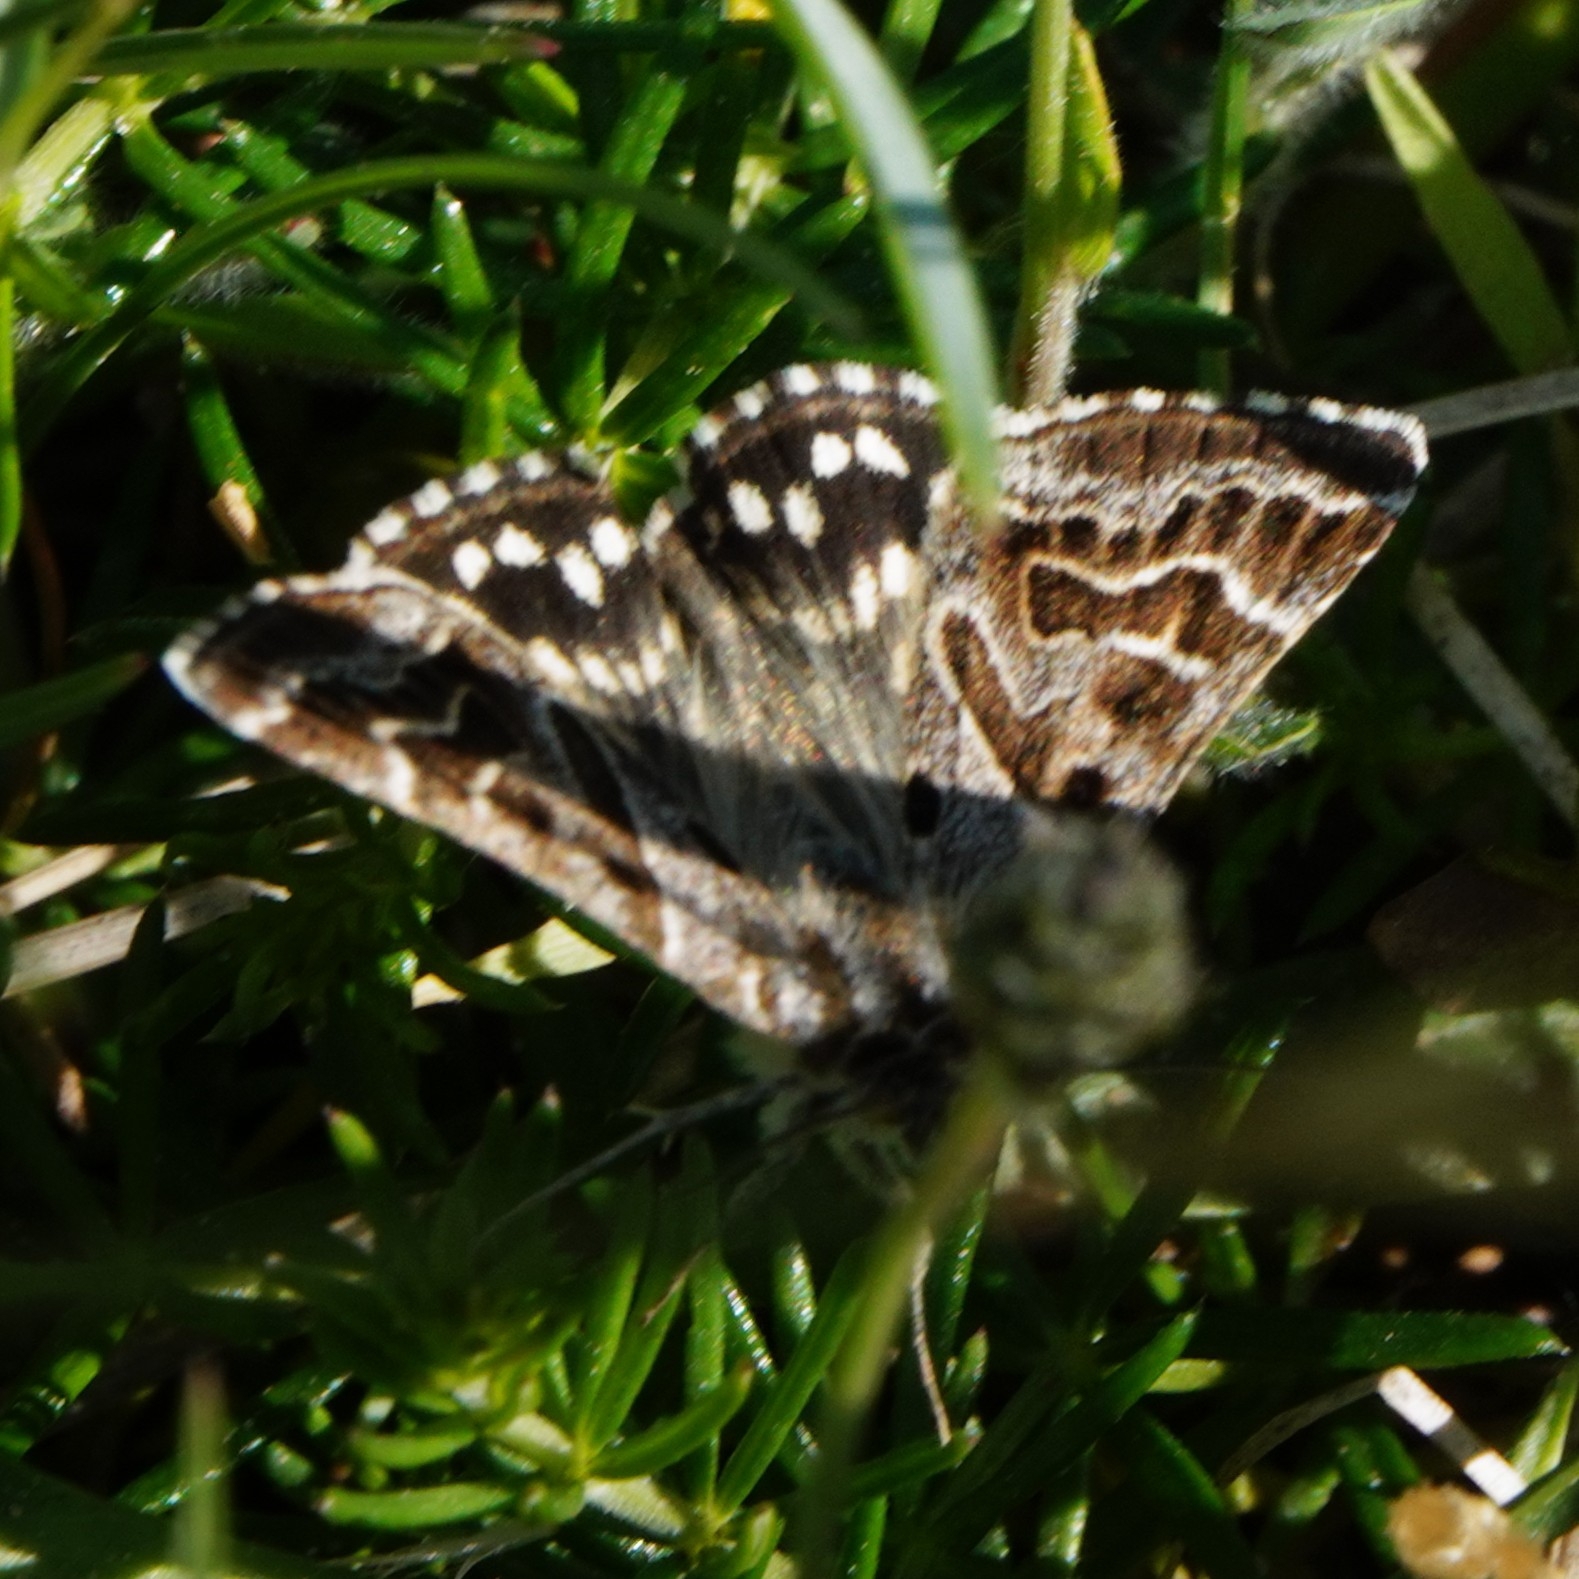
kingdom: Animalia
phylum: Arthropoda
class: Insecta
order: Lepidoptera
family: Erebidae
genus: Callistege
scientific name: Callistege mi
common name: Mother shipton
